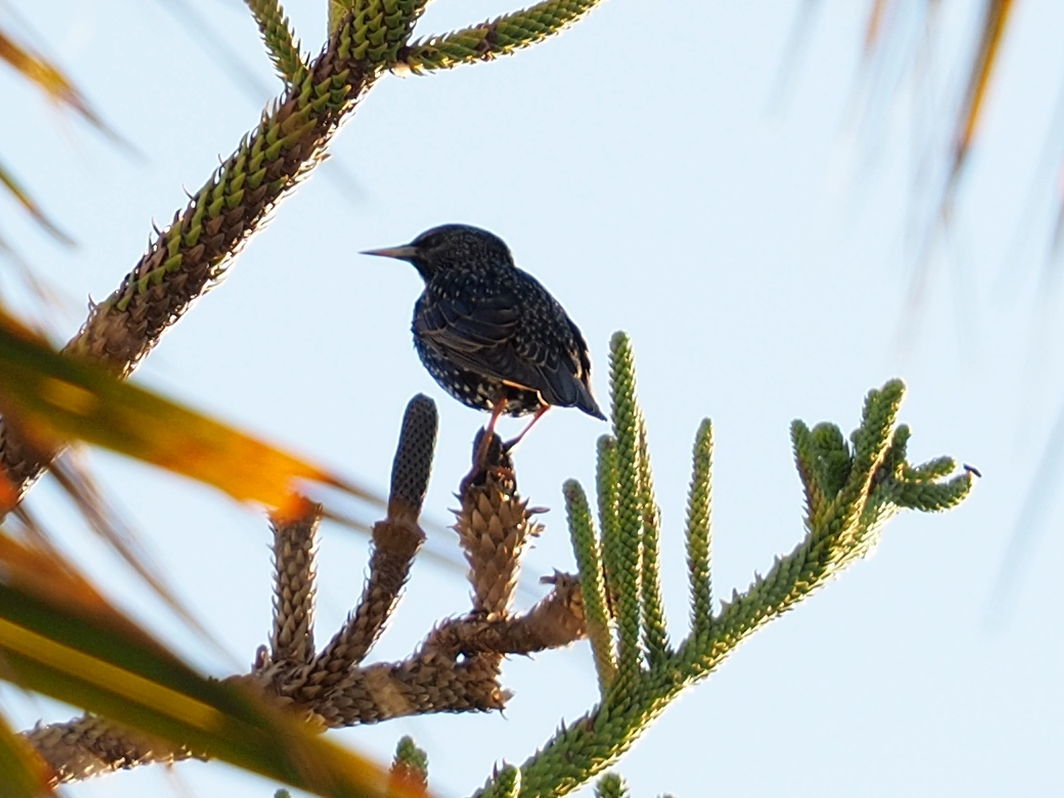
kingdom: Animalia
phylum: Chordata
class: Aves
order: Passeriformes
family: Sturnidae
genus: Sturnus
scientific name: Sturnus vulgaris
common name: Common starling
